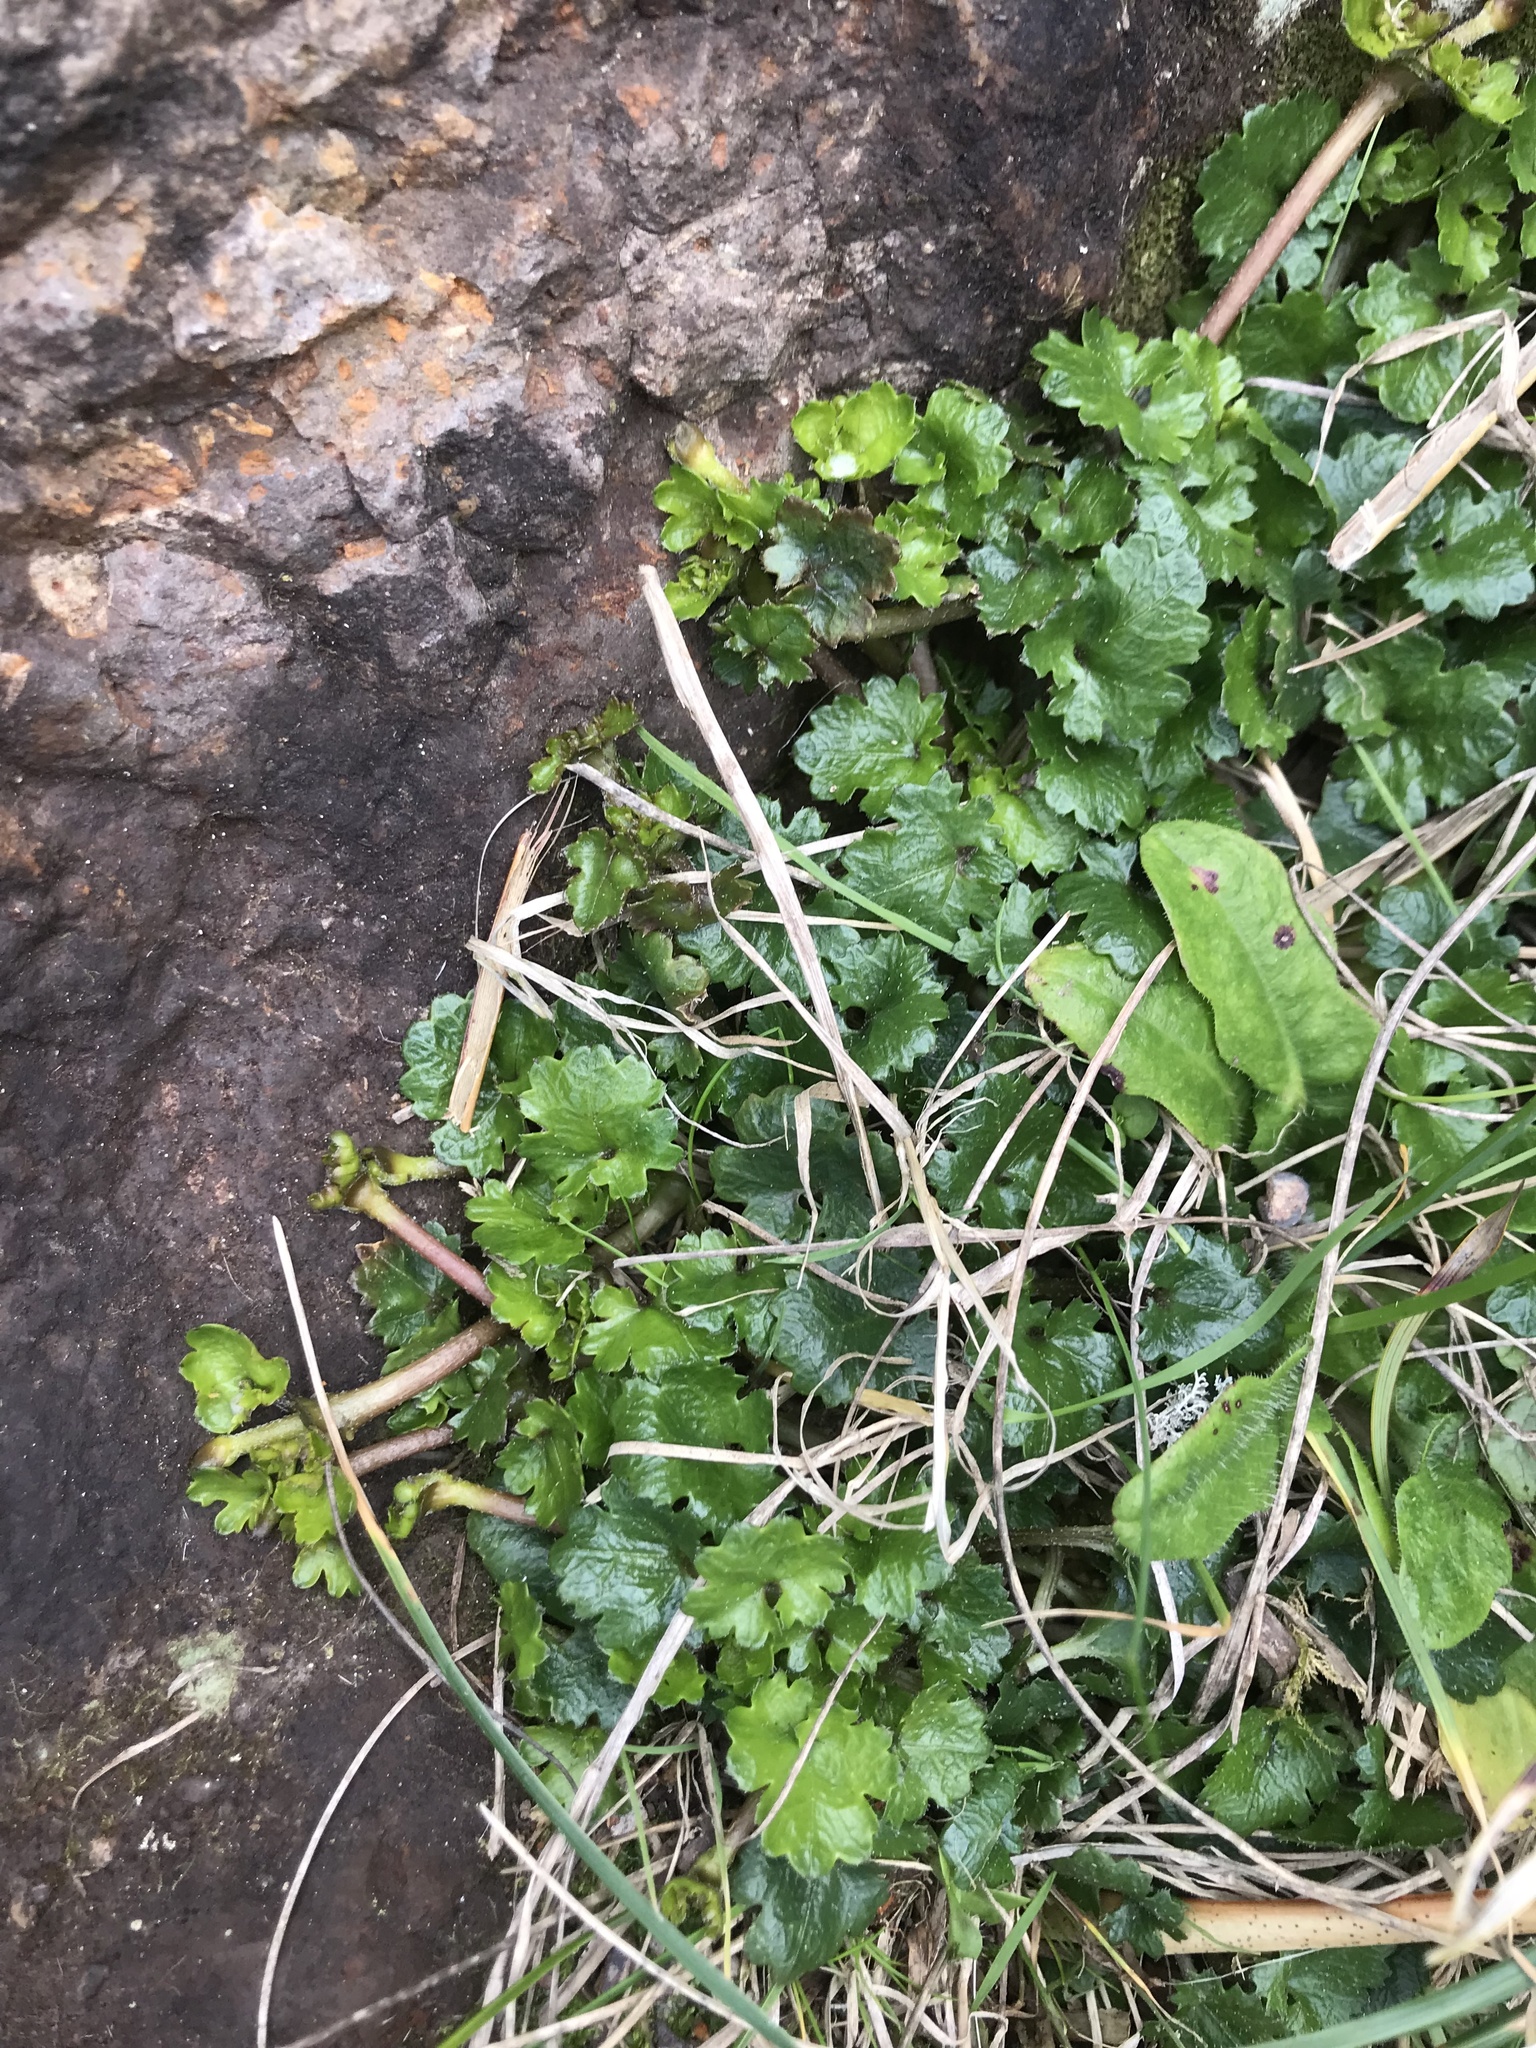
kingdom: Plantae
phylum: Tracheophyta
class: Magnoliopsida
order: Gunnerales
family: Gunneraceae
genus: Gunnera
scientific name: Gunnera monoica
